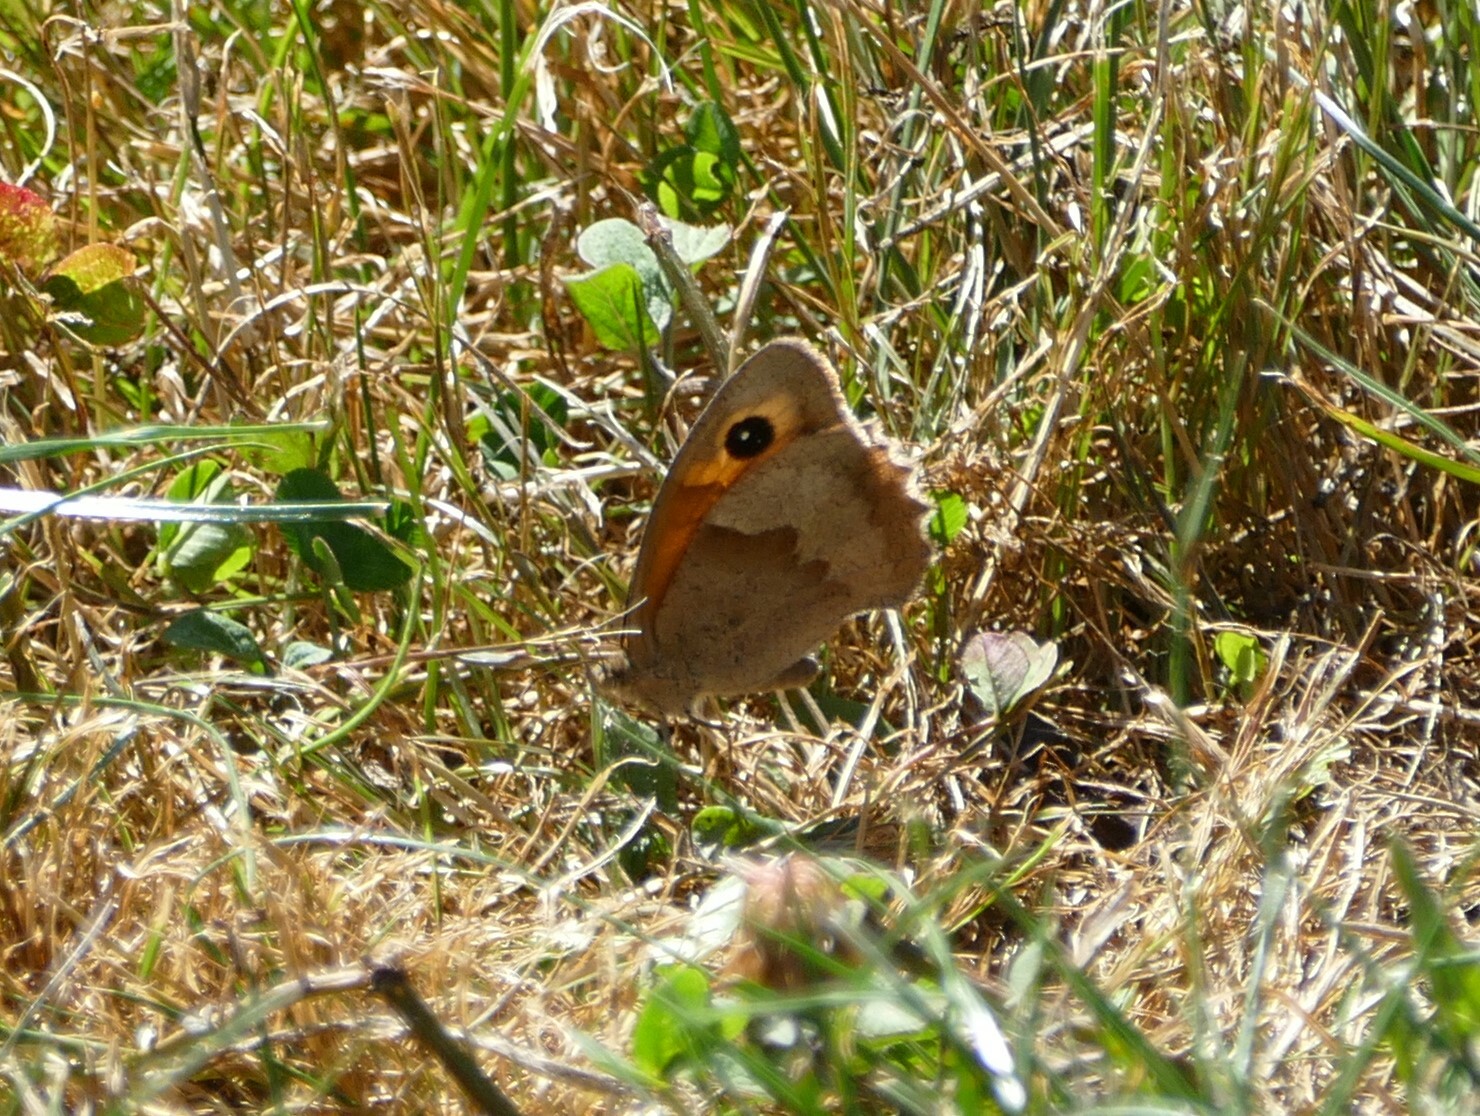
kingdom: Animalia
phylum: Arthropoda
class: Insecta
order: Lepidoptera
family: Nymphalidae
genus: Maniola
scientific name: Maniola jurtina
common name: Meadow brown
